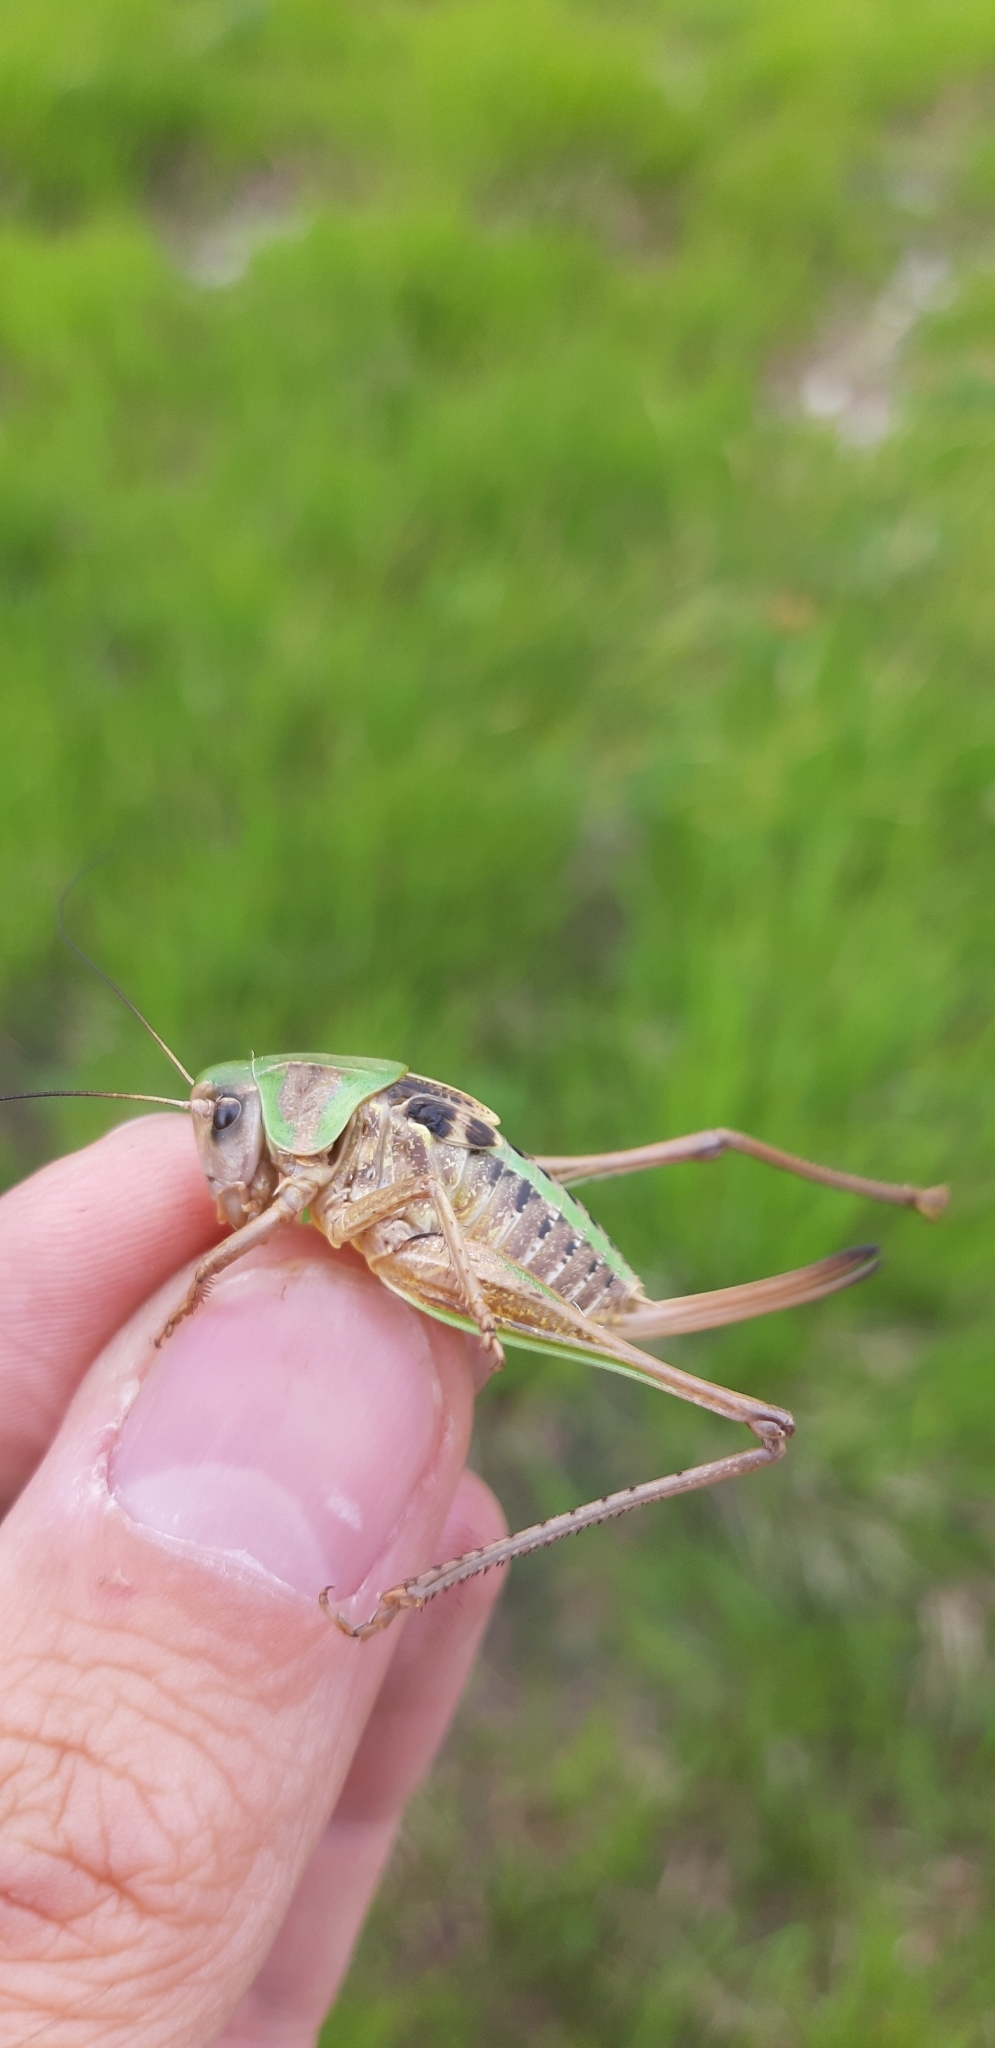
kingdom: Animalia
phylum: Arthropoda
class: Insecta
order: Orthoptera
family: Tettigoniidae
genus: Decticus
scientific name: Decticus aprutianus
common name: Abruzzo wart-biter
